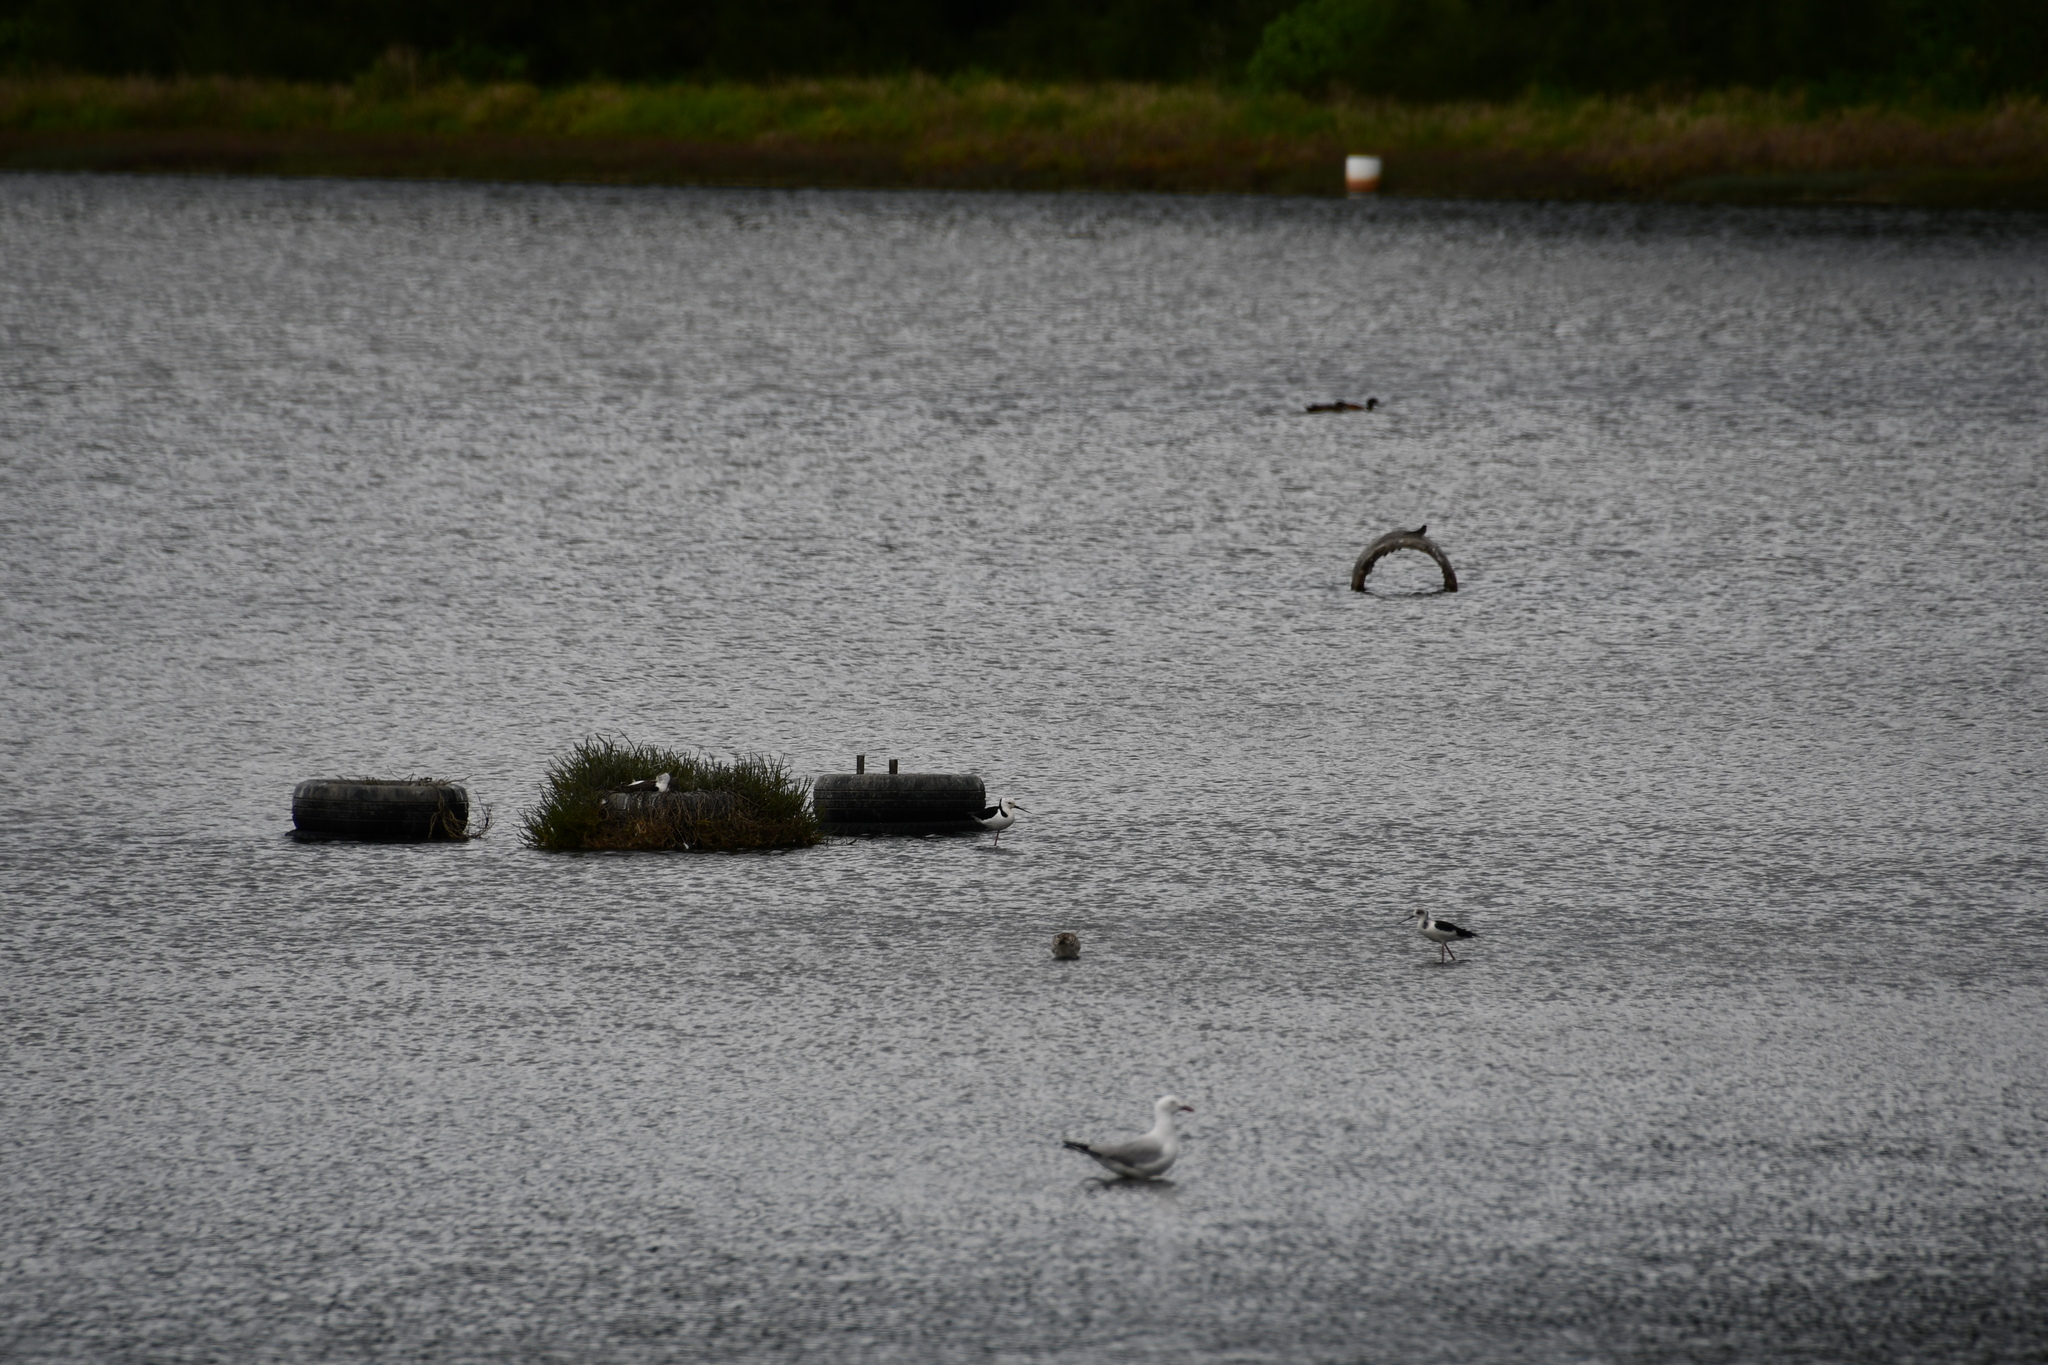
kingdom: Animalia
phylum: Chordata
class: Aves
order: Charadriiformes
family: Recurvirostridae
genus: Himantopus
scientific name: Himantopus leucocephalus
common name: White-headed stilt
